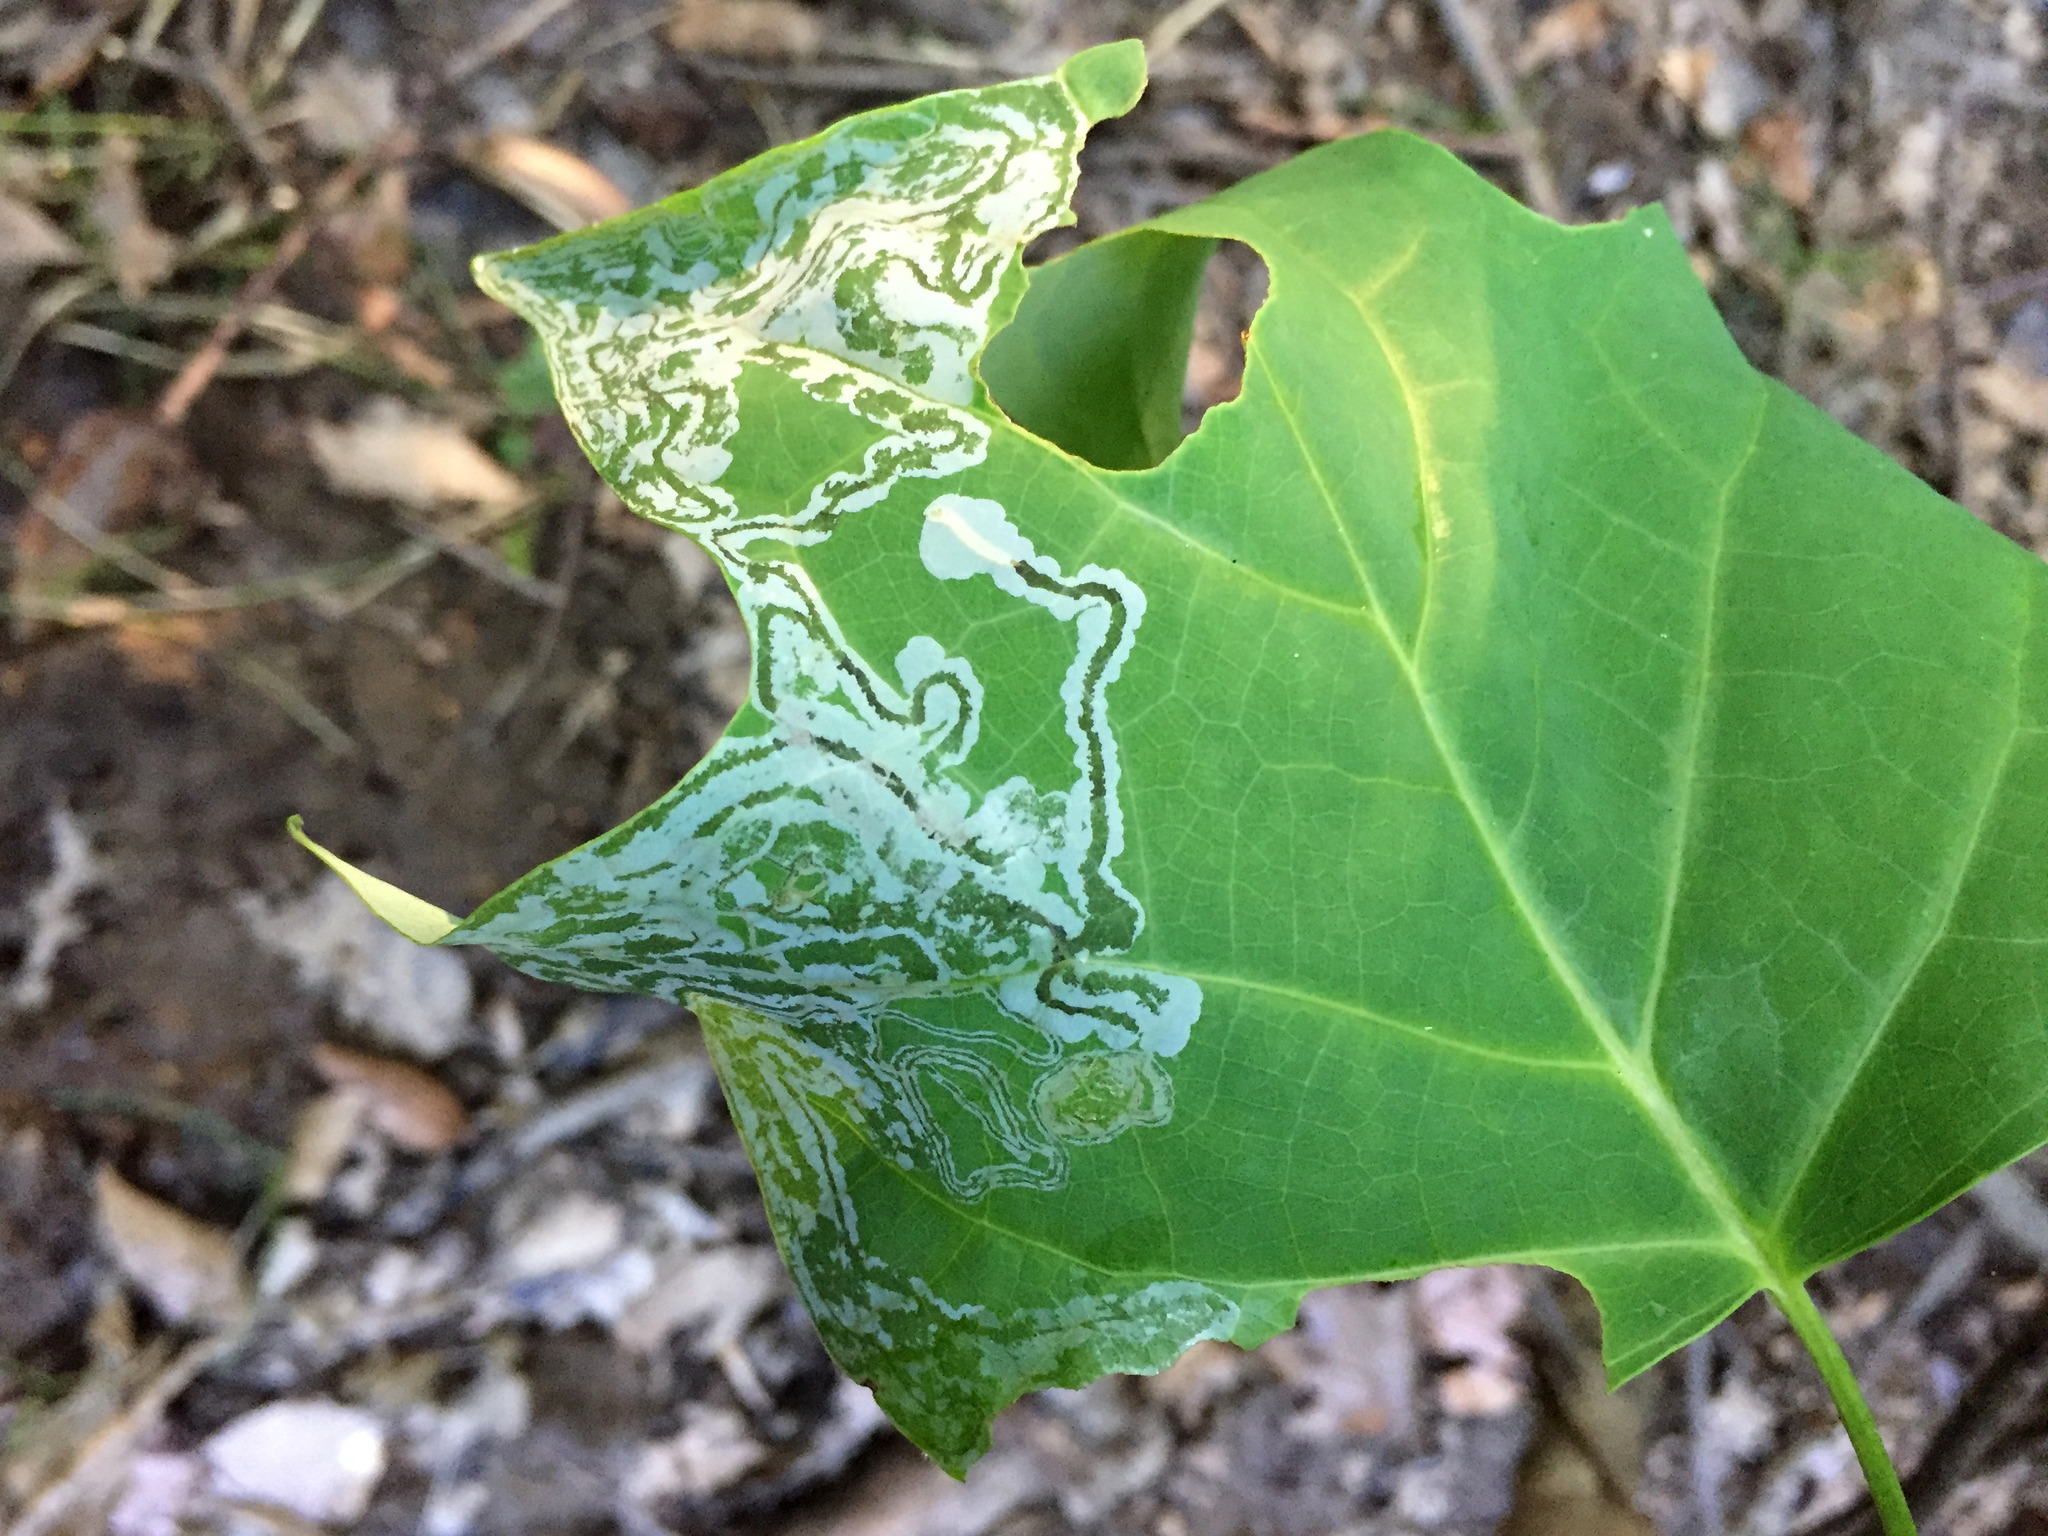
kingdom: Animalia
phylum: Arthropoda
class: Insecta
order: Lepidoptera
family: Gracillariidae
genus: Phyllocnistis
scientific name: Phyllocnistis liriodendronella
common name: Tulip tree leaf miner
